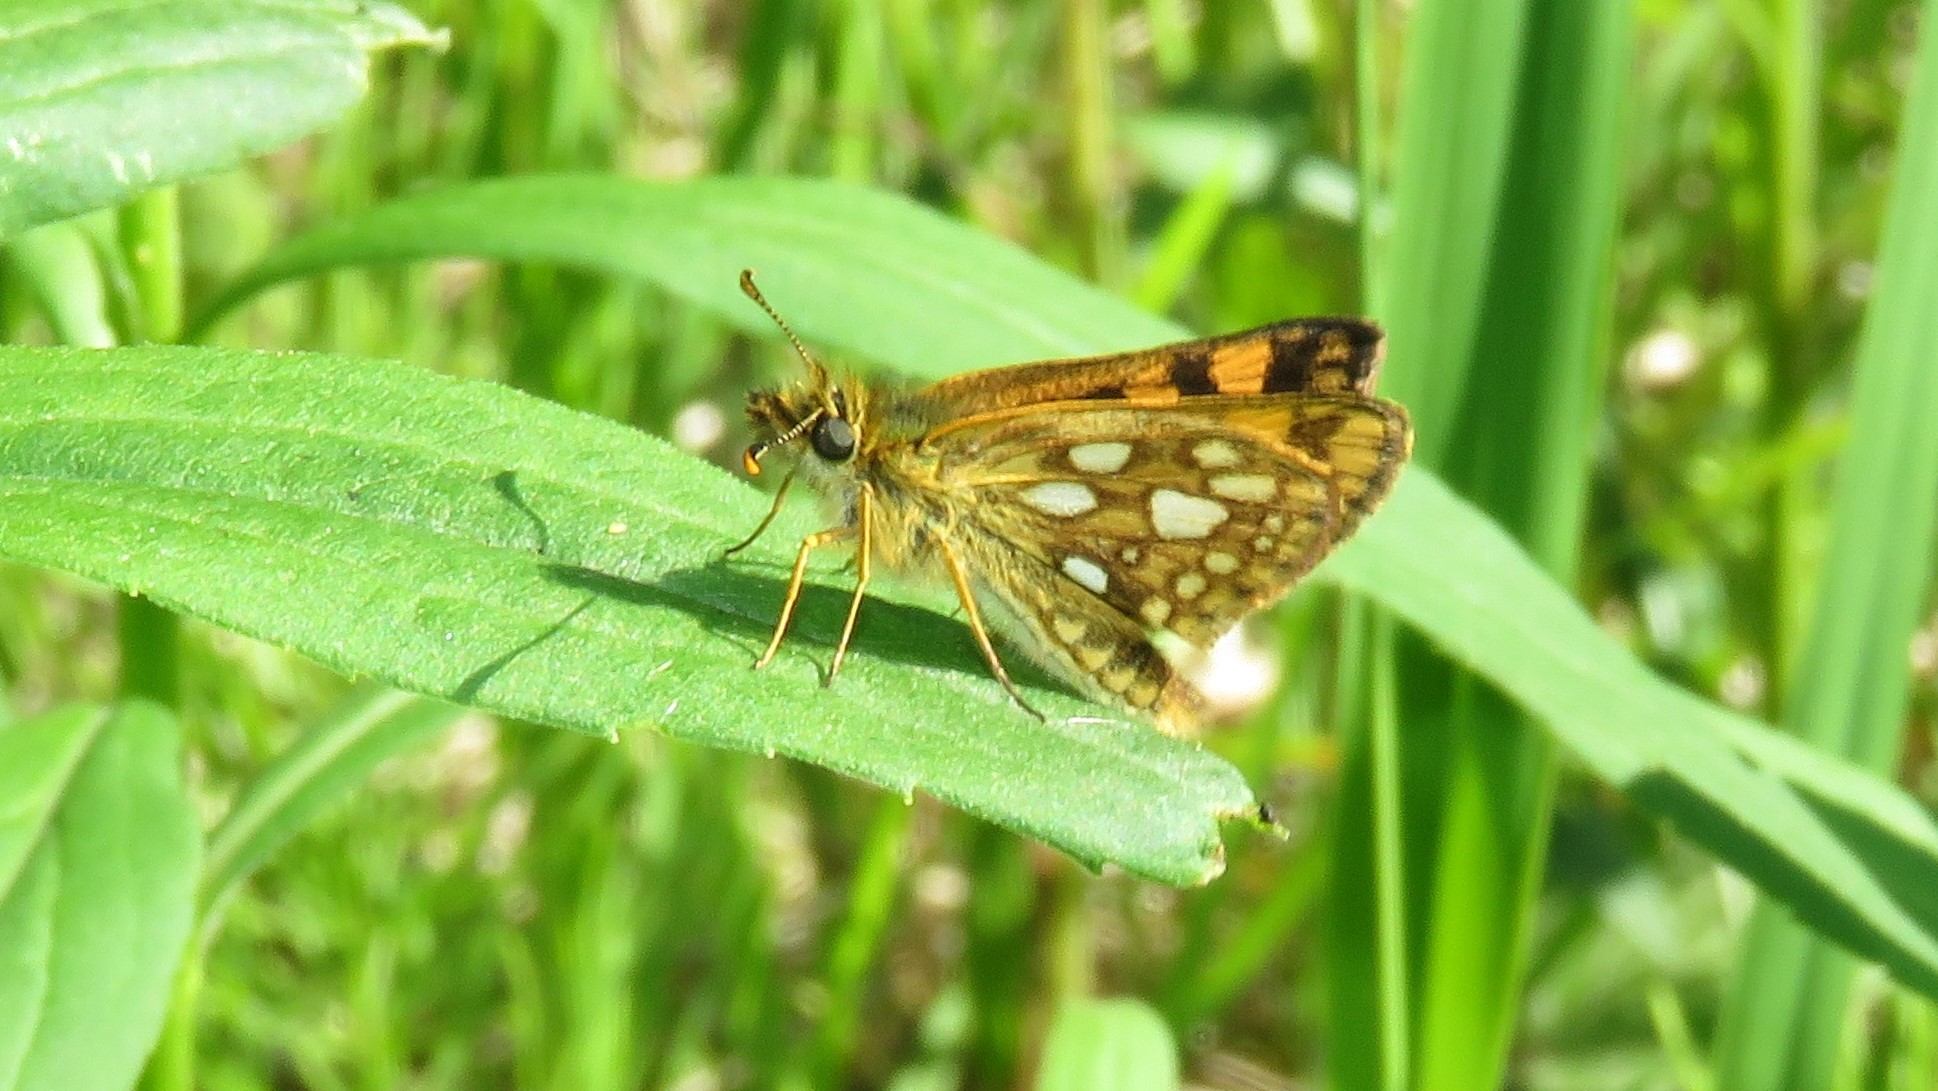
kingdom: Animalia
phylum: Arthropoda
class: Insecta
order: Lepidoptera
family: Hesperiidae
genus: Carterocephalus
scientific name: Carterocephalus mandan
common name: Arctic skipperling
